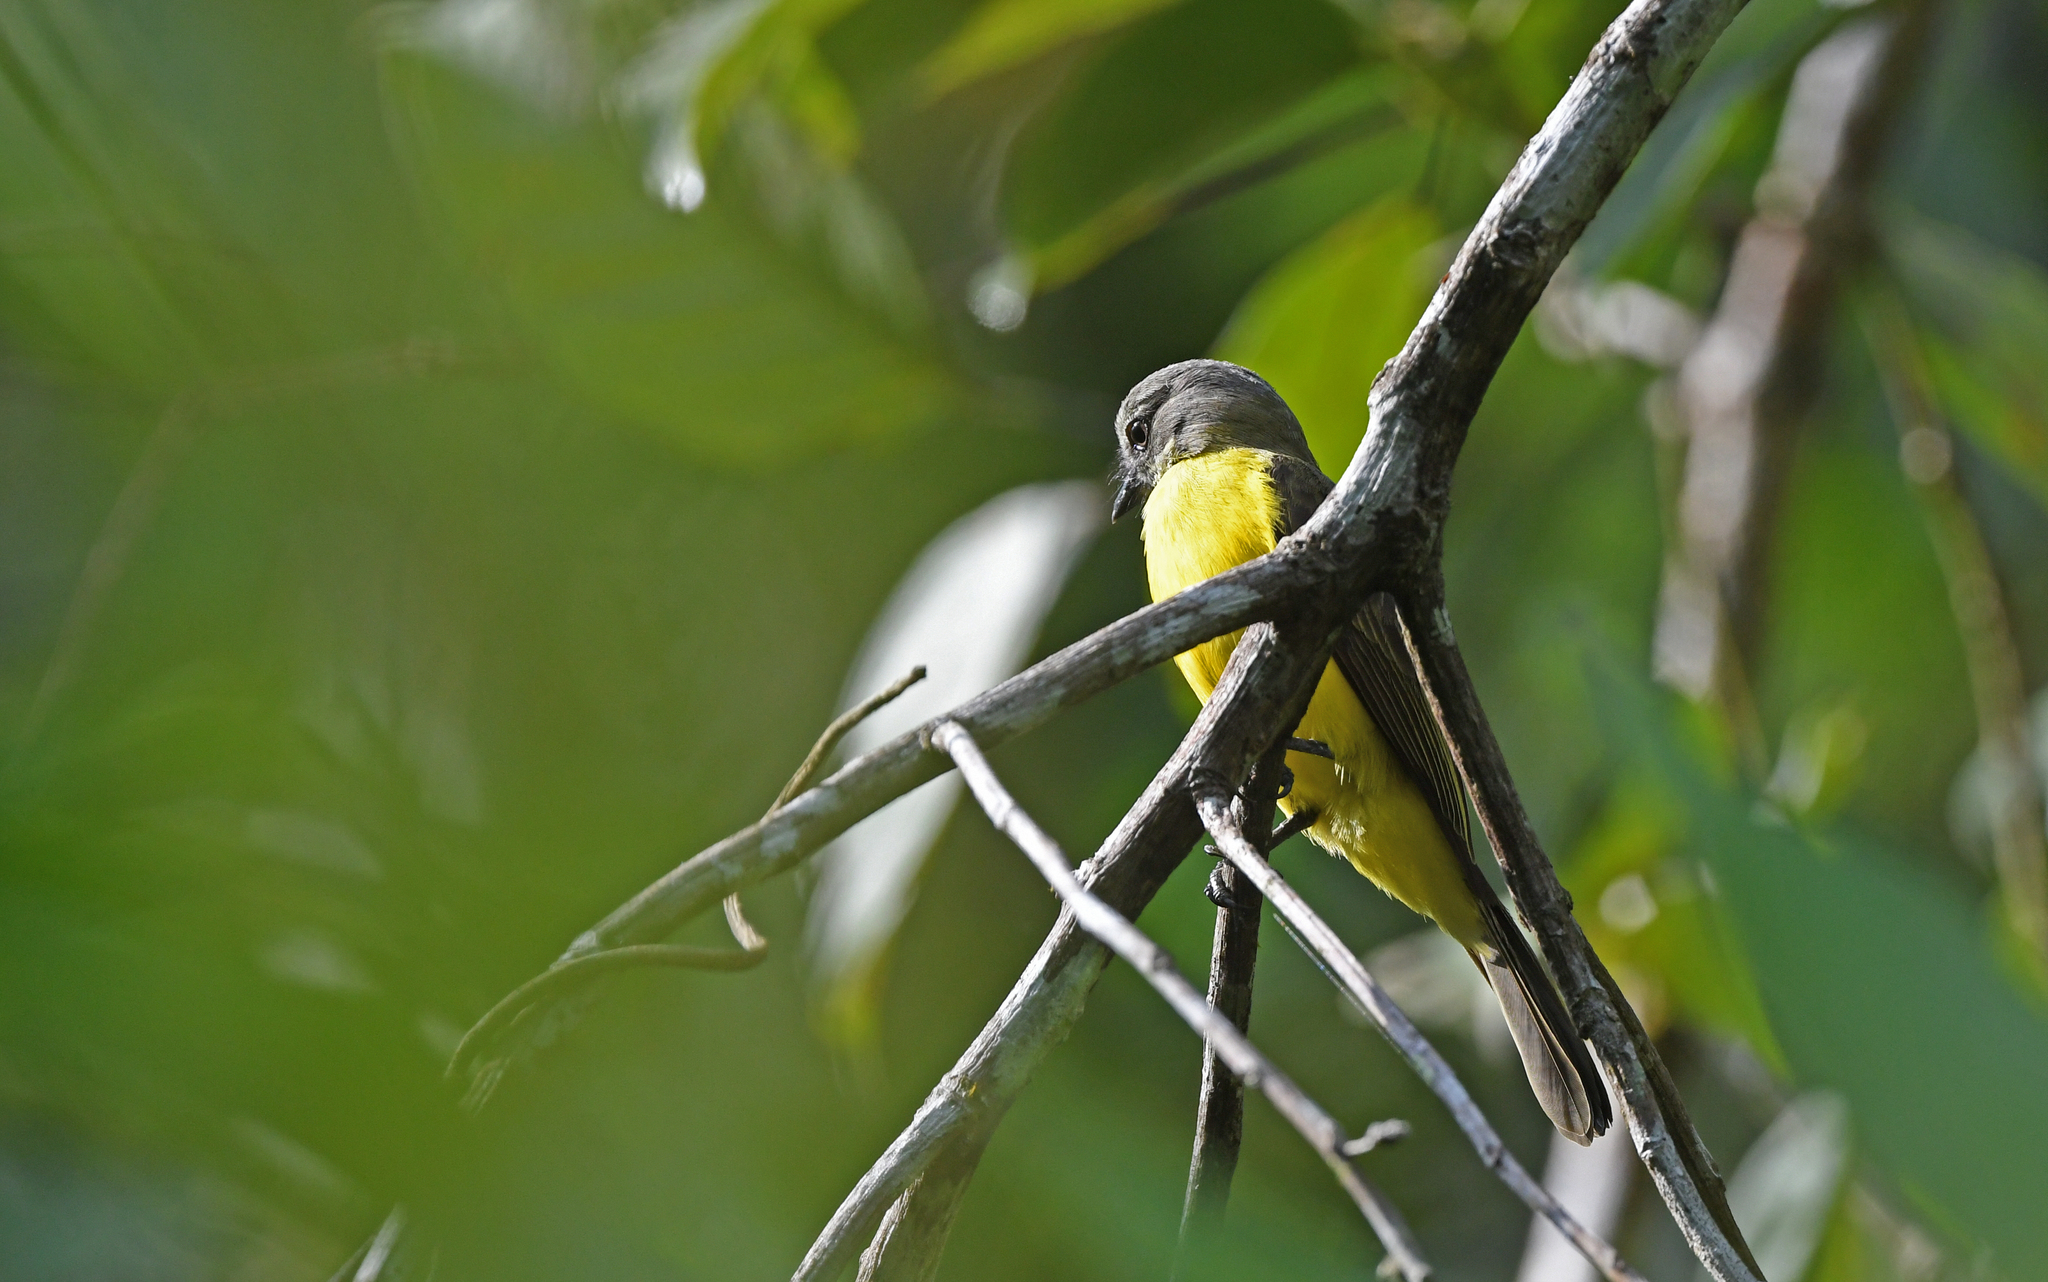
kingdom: Animalia
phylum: Chordata
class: Aves
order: Passeriformes
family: Tyrannidae
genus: Myiozetetes
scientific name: Myiozetetes granadensis
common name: Gray-capped flycatcher
